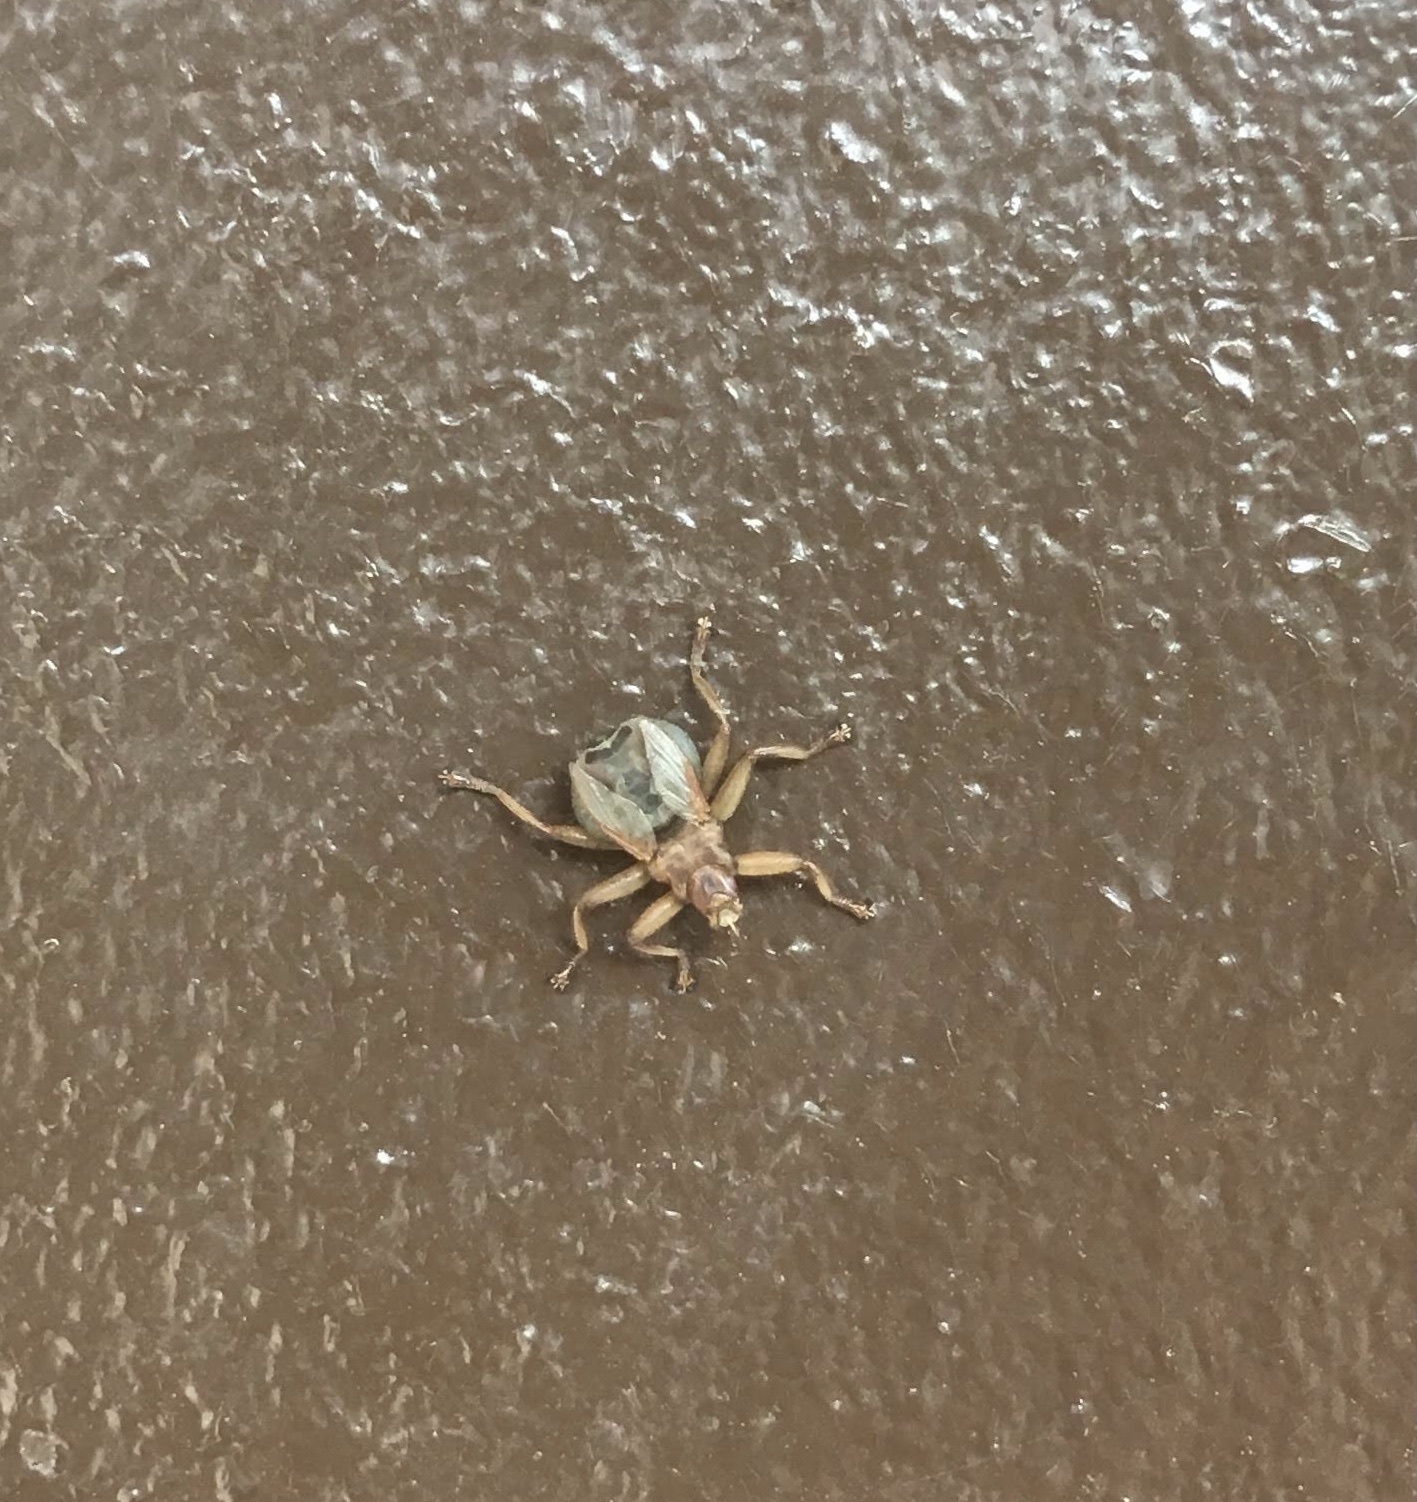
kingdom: Animalia
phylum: Arthropoda
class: Insecta
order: Diptera
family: Hippoboscidae
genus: Crataerina
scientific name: Crataerina pallida
